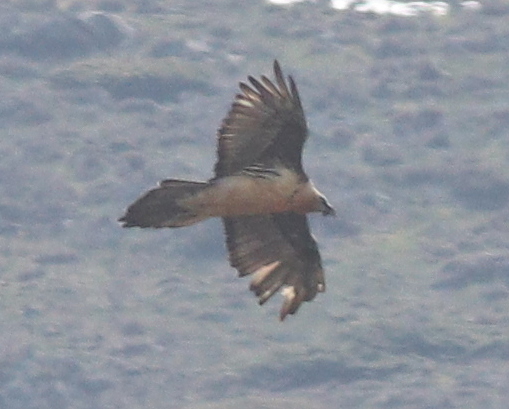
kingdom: Animalia
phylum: Chordata
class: Aves
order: Accipitriformes
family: Accipitridae
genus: Gypaetus
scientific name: Gypaetus barbatus
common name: Bearded vulture
